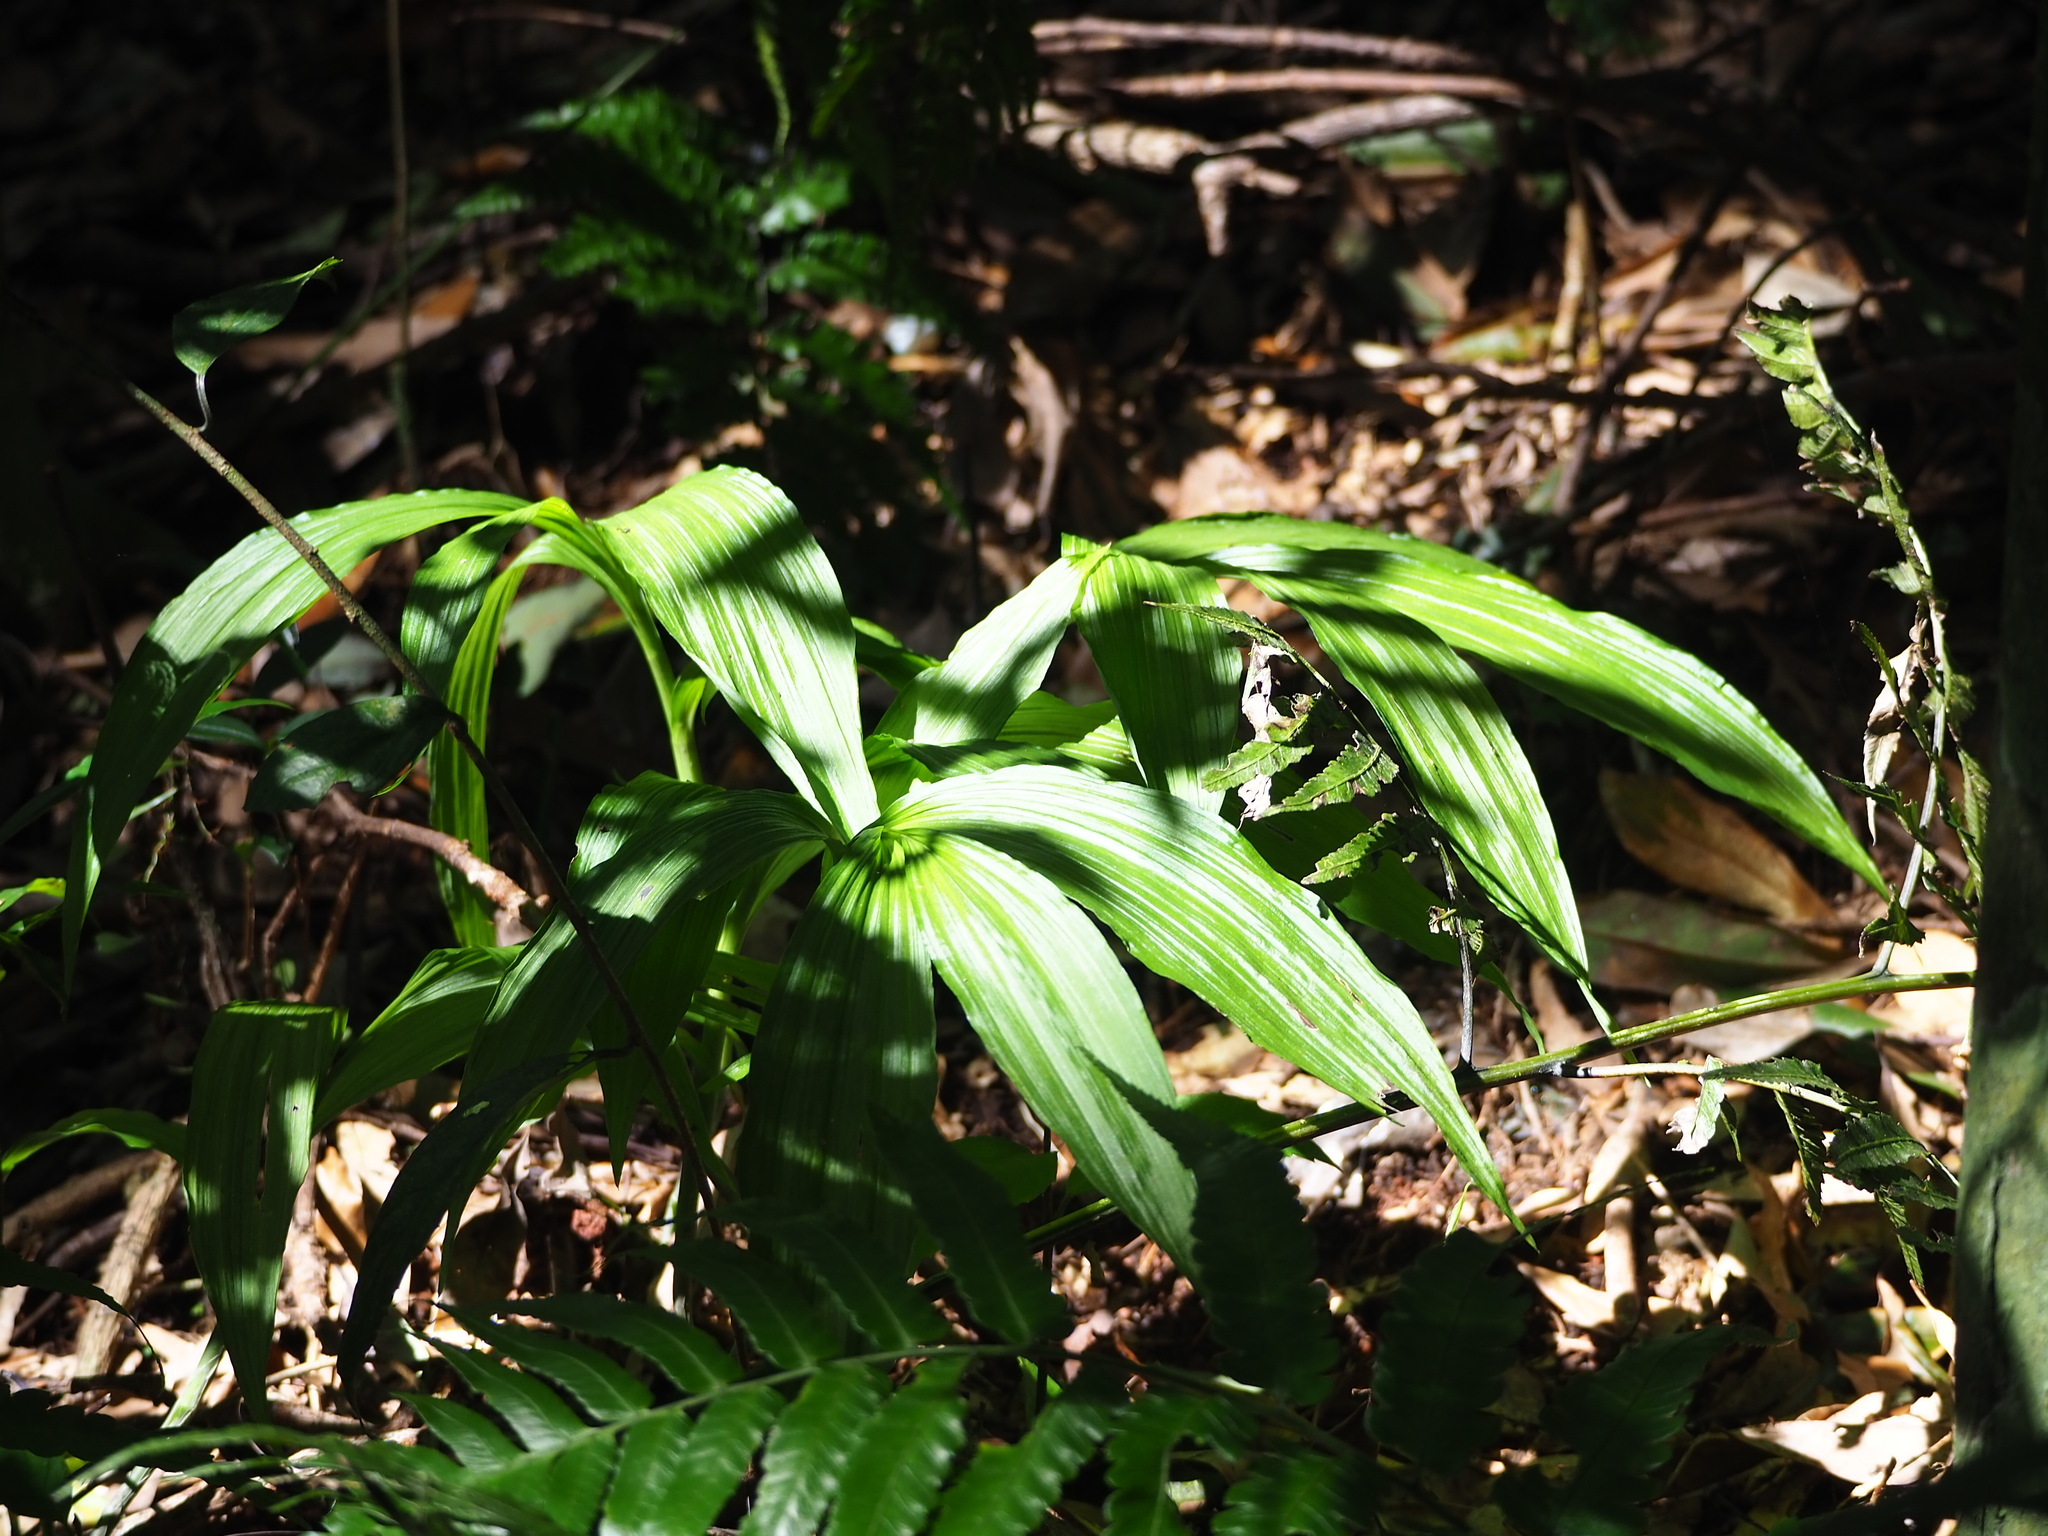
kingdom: Plantae
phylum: Tracheophyta
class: Liliopsida
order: Asparagales
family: Orchidaceae
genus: Calanthe
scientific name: Calanthe obcordata
